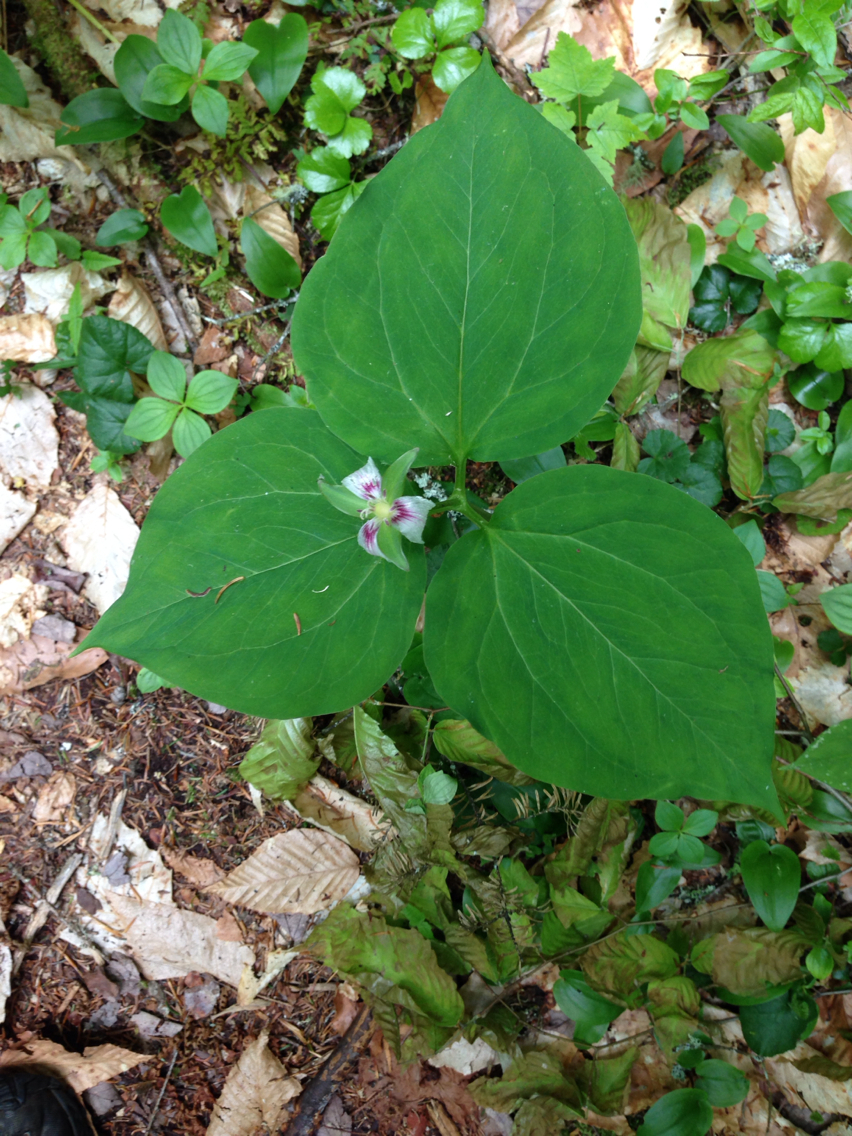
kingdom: Plantae
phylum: Tracheophyta
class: Liliopsida
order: Liliales
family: Melanthiaceae
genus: Trillium
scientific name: Trillium undulatum
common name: Paint trillium
